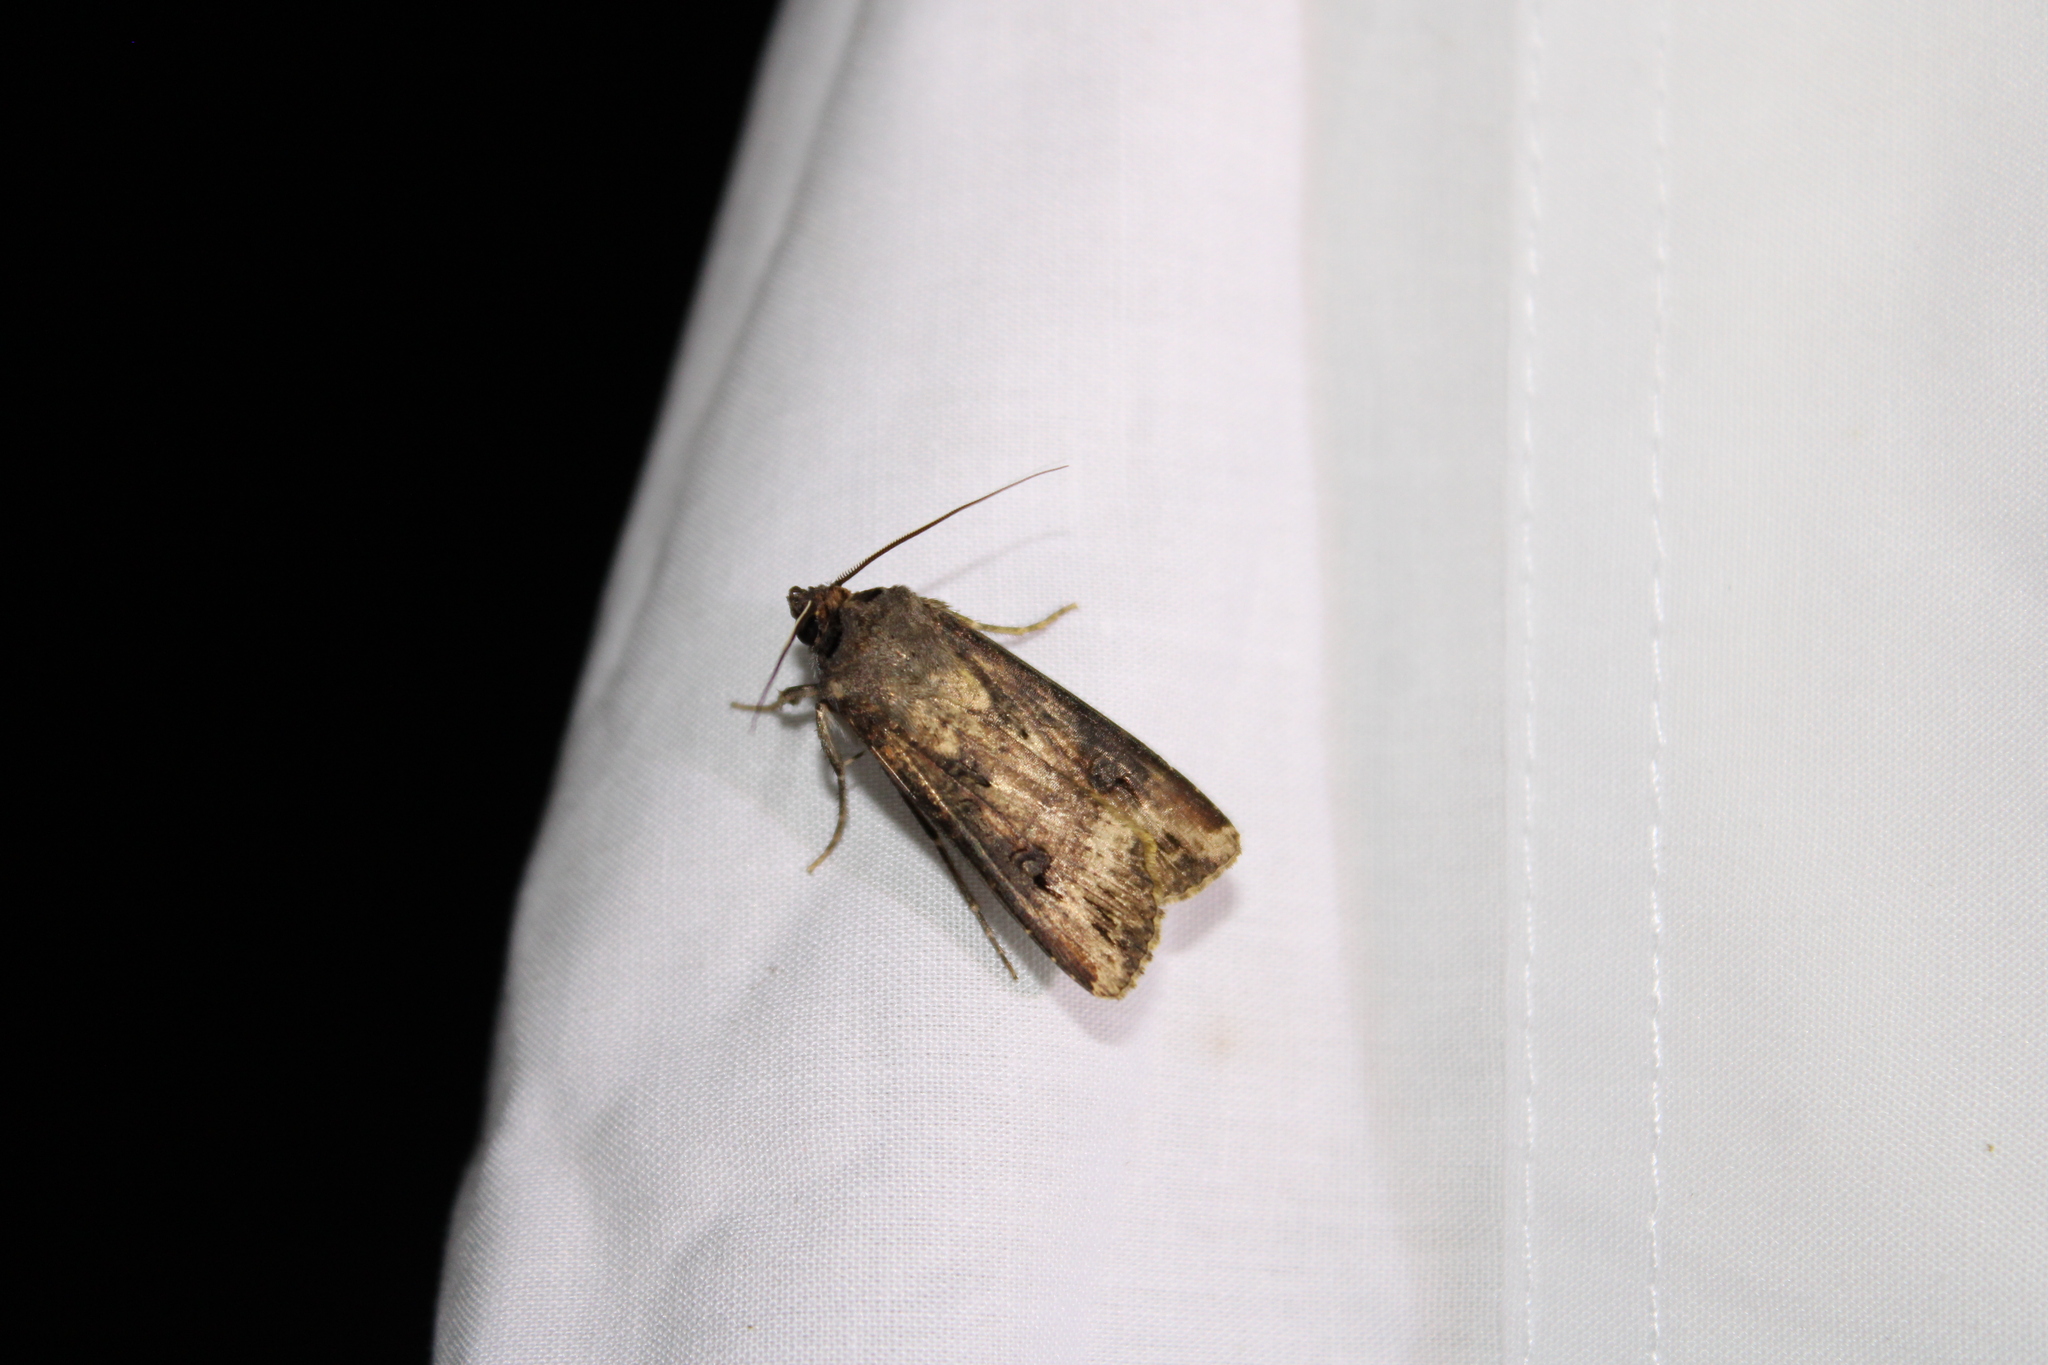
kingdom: Animalia
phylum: Arthropoda
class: Insecta
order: Lepidoptera
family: Noctuidae
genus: Agrotis
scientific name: Agrotis ipsilon
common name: Dark sword-grass
